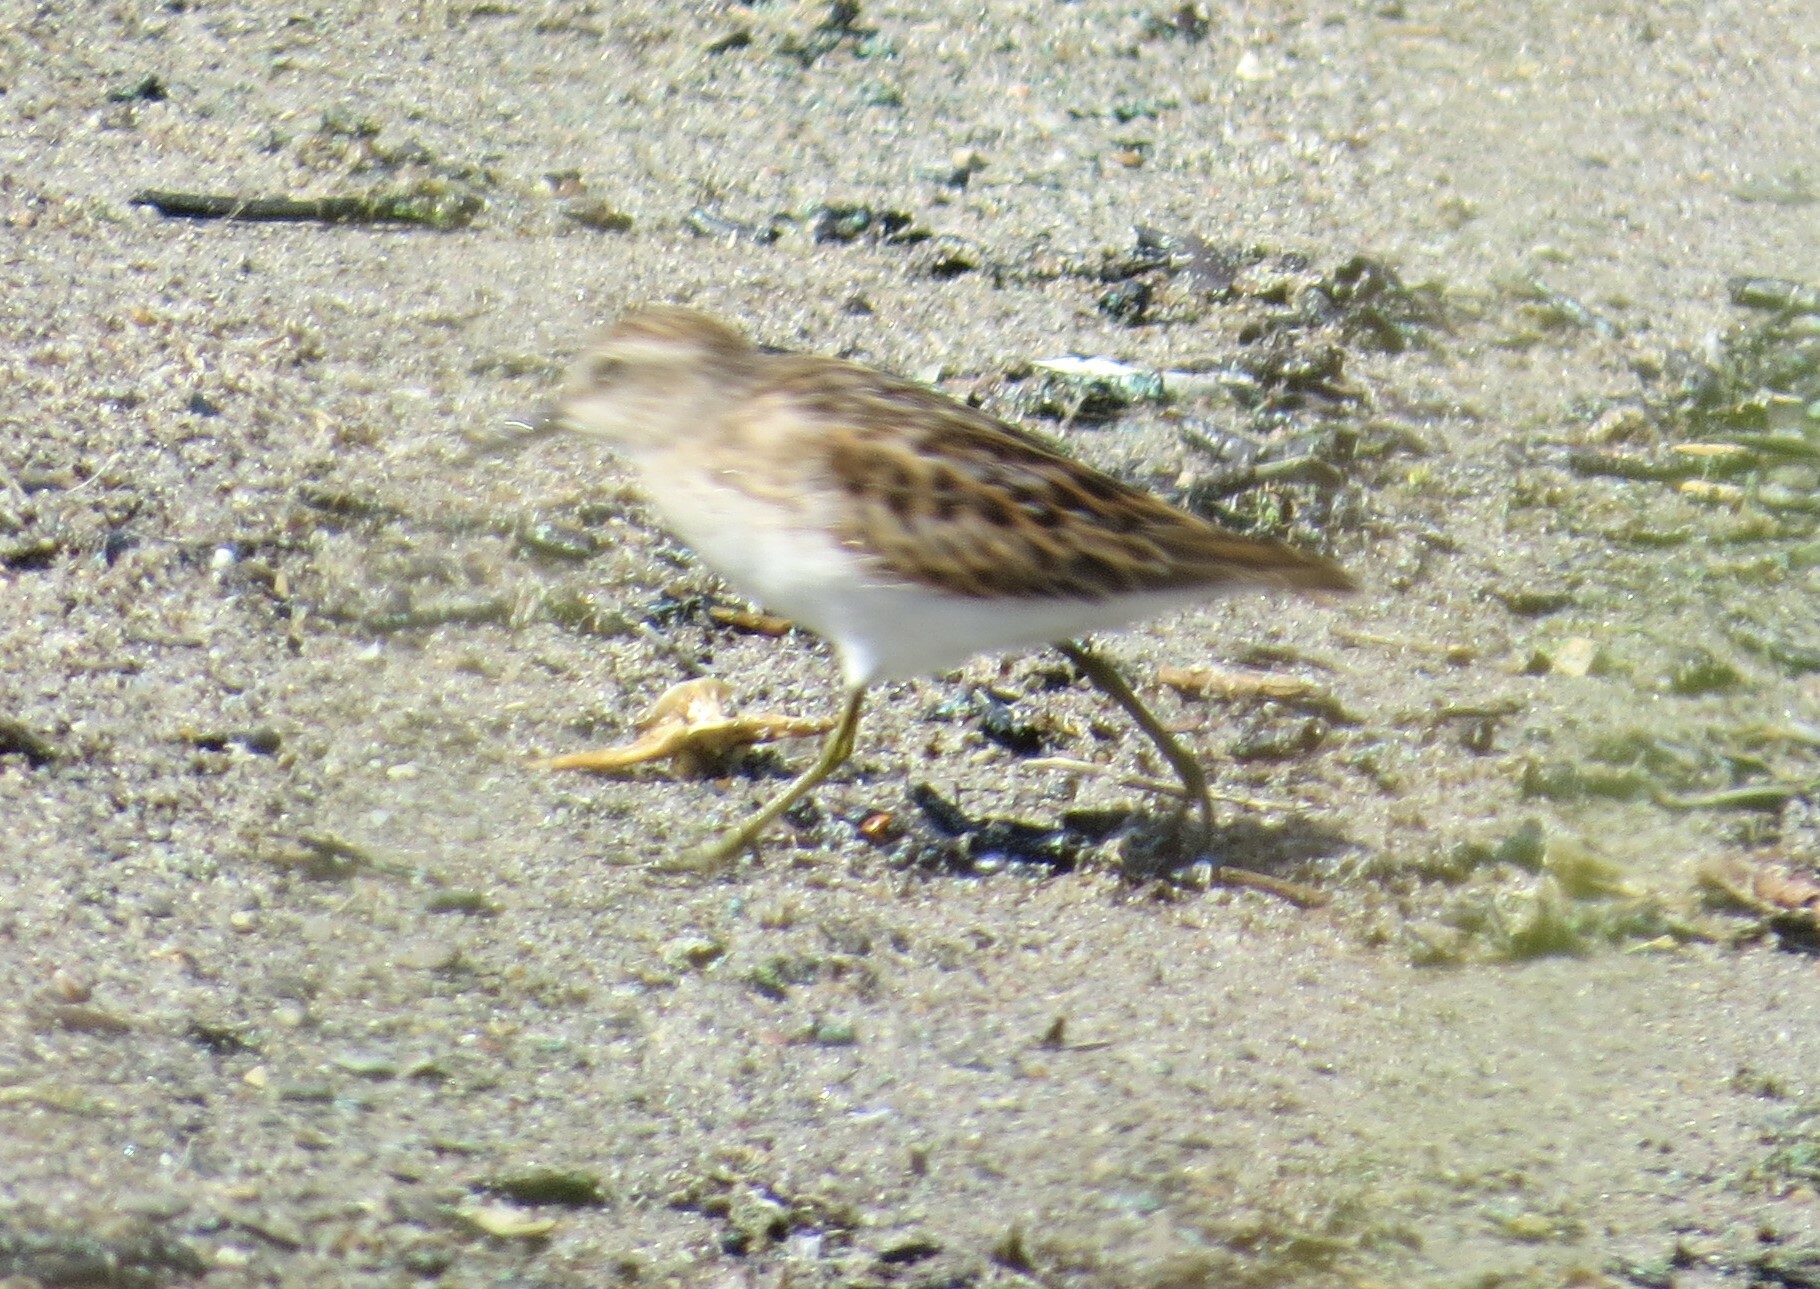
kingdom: Animalia
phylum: Chordata
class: Aves
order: Charadriiformes
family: Scolopacidae
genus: Calidris
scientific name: Calidris minutilla
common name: Least sandpiper
